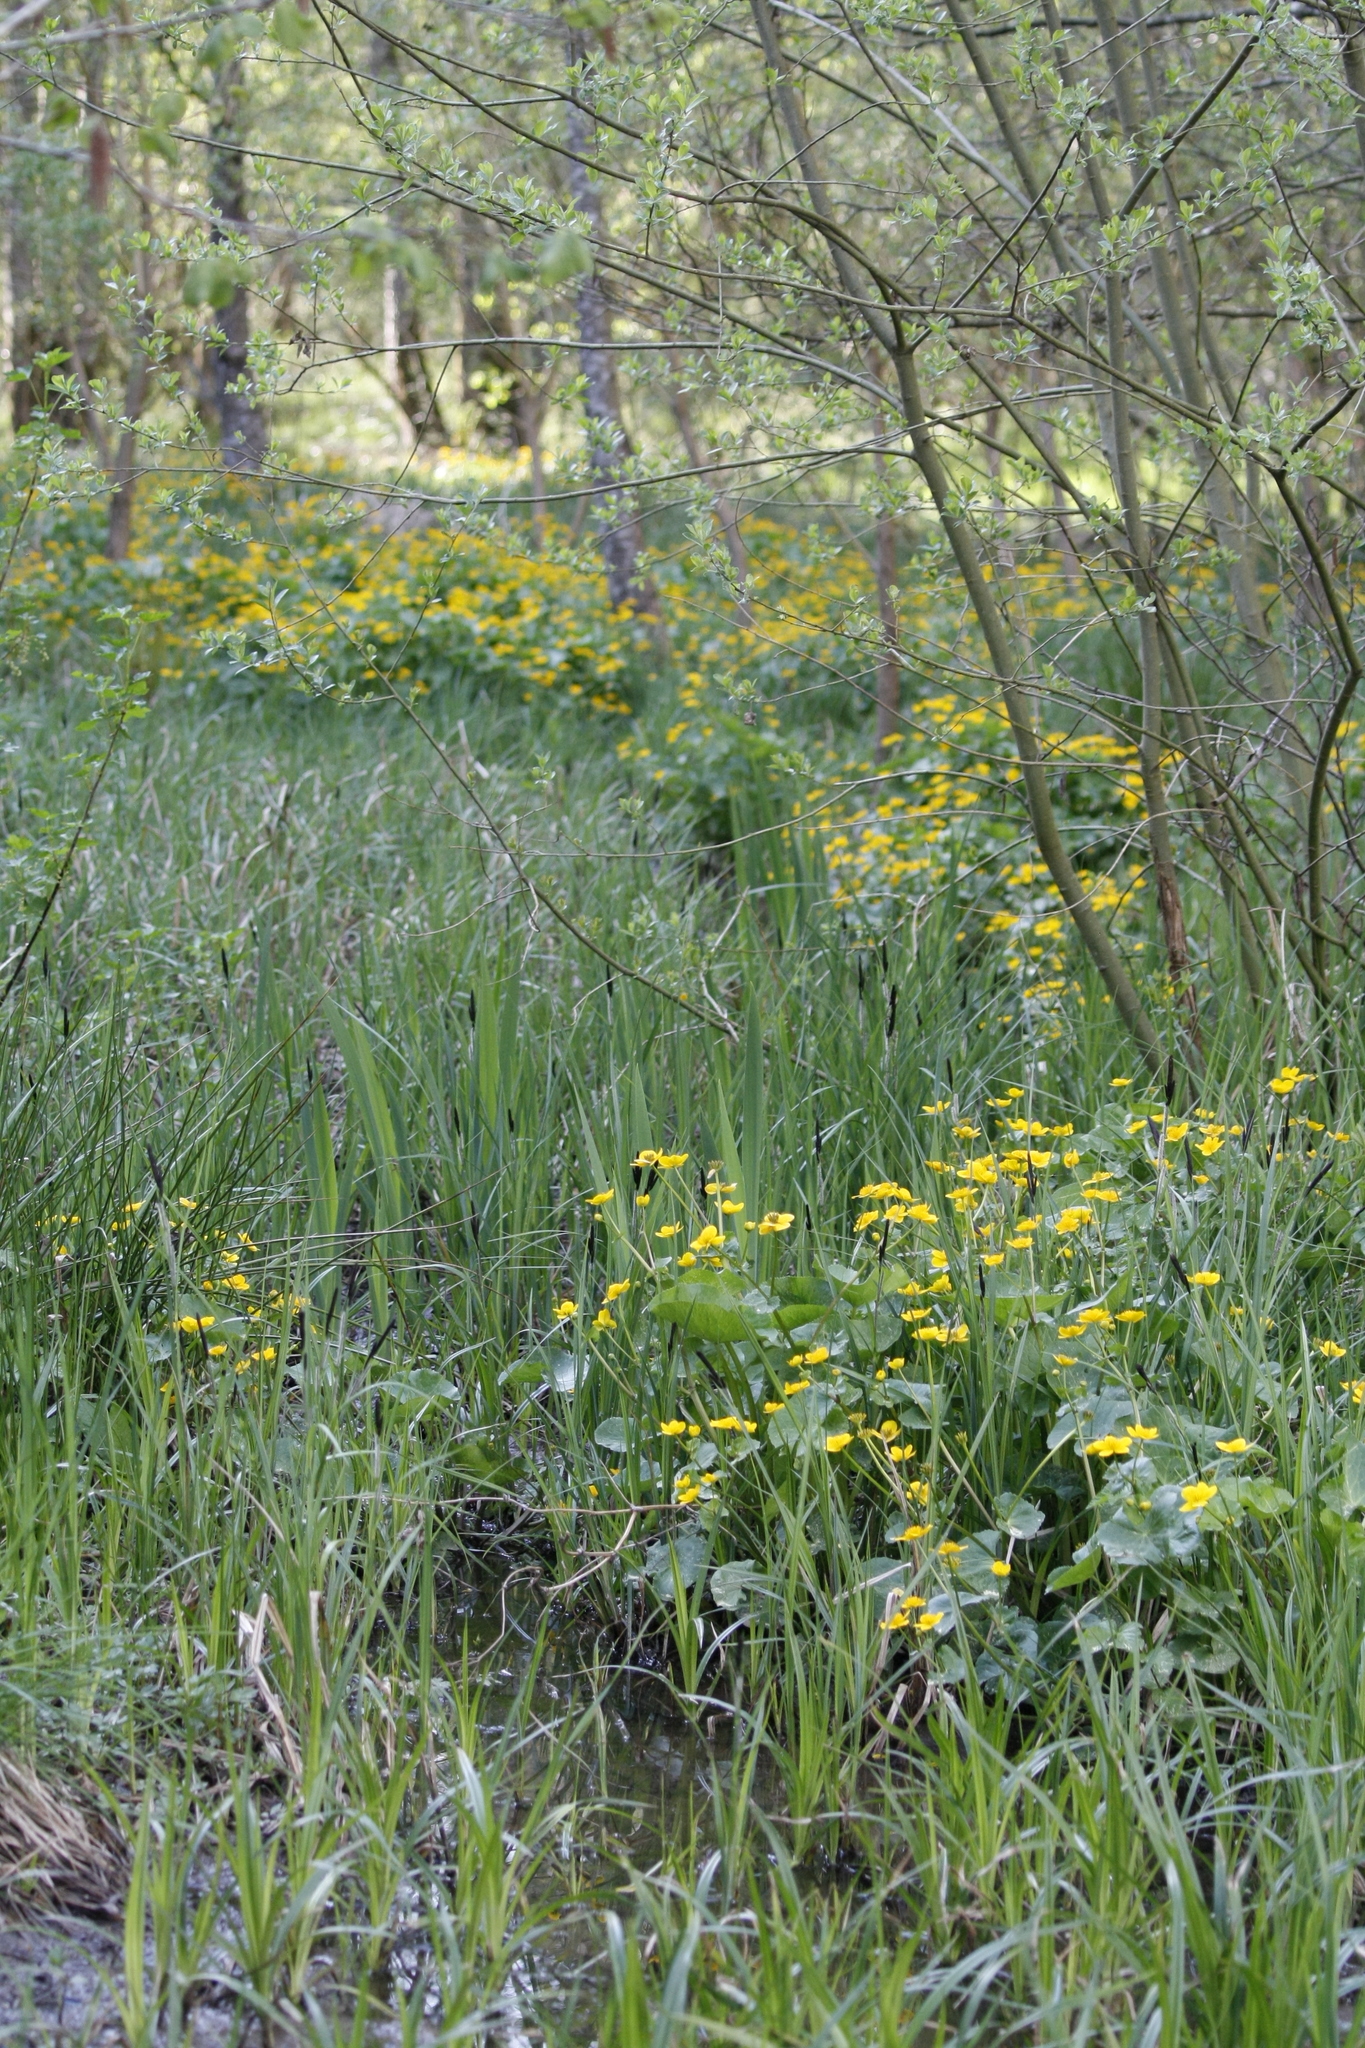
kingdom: Plantae
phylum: Tracheophyta
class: Magnoliopsida
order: Ranunculales
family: Ranunculaceae
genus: Caltha
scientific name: Caltha palustris
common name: Marsh marigold
